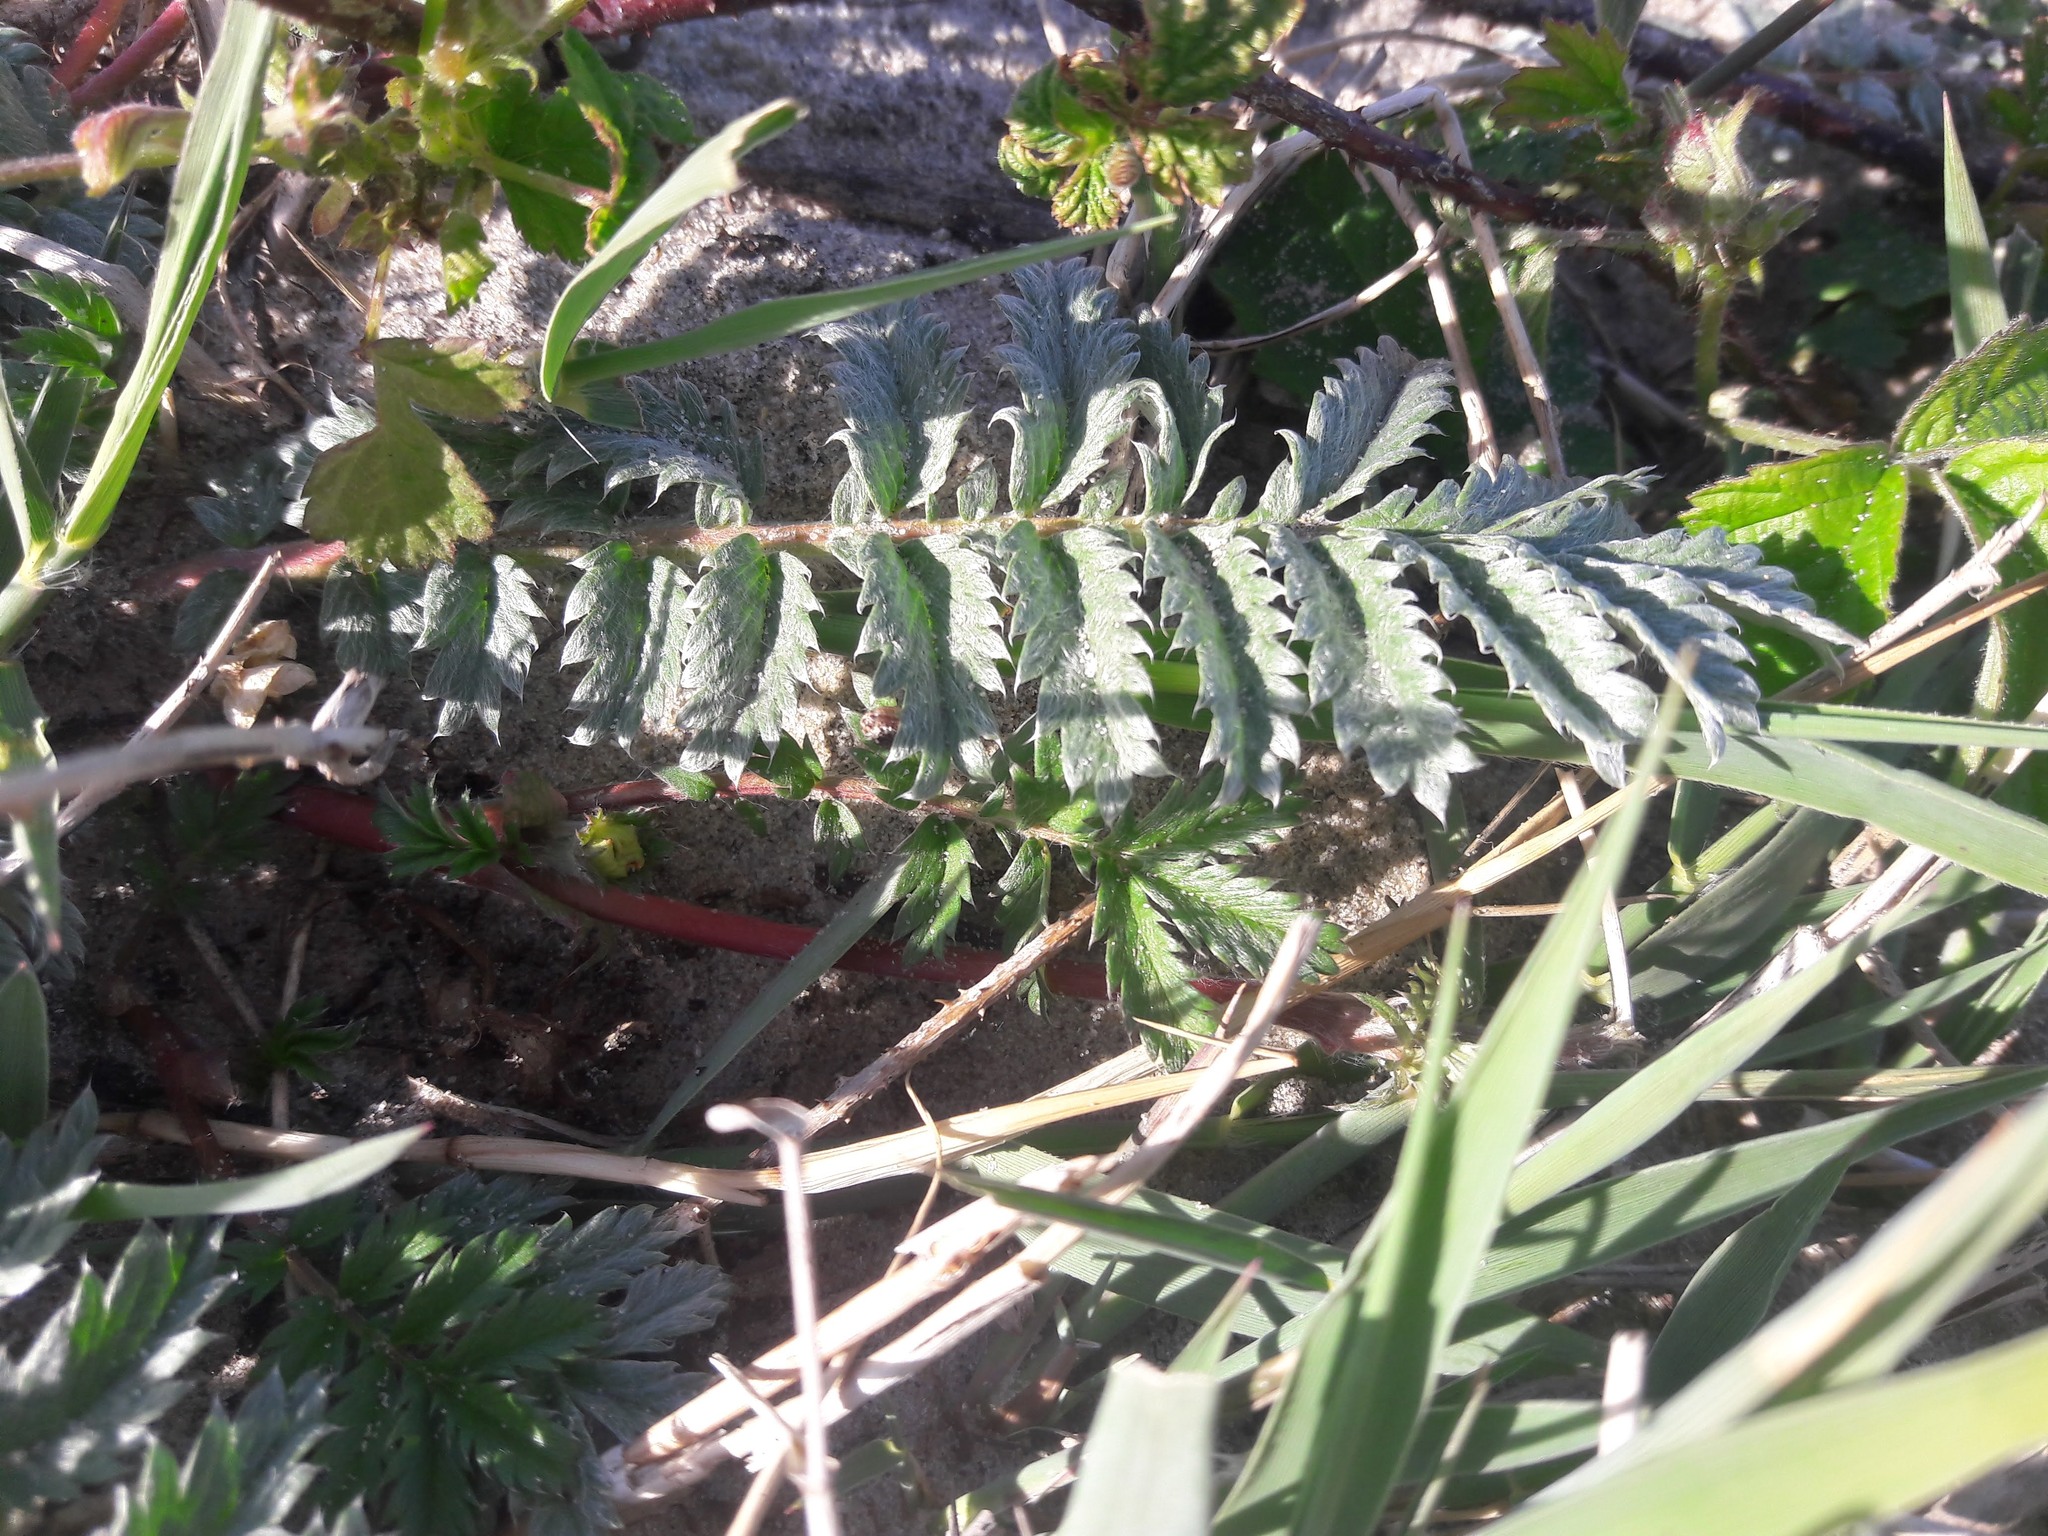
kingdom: Plantae
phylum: Tracheophyta
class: Magnoliopsida
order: Rosales
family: Rosaceae
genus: Argentina
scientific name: Argentina anserina
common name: Common silverweed
